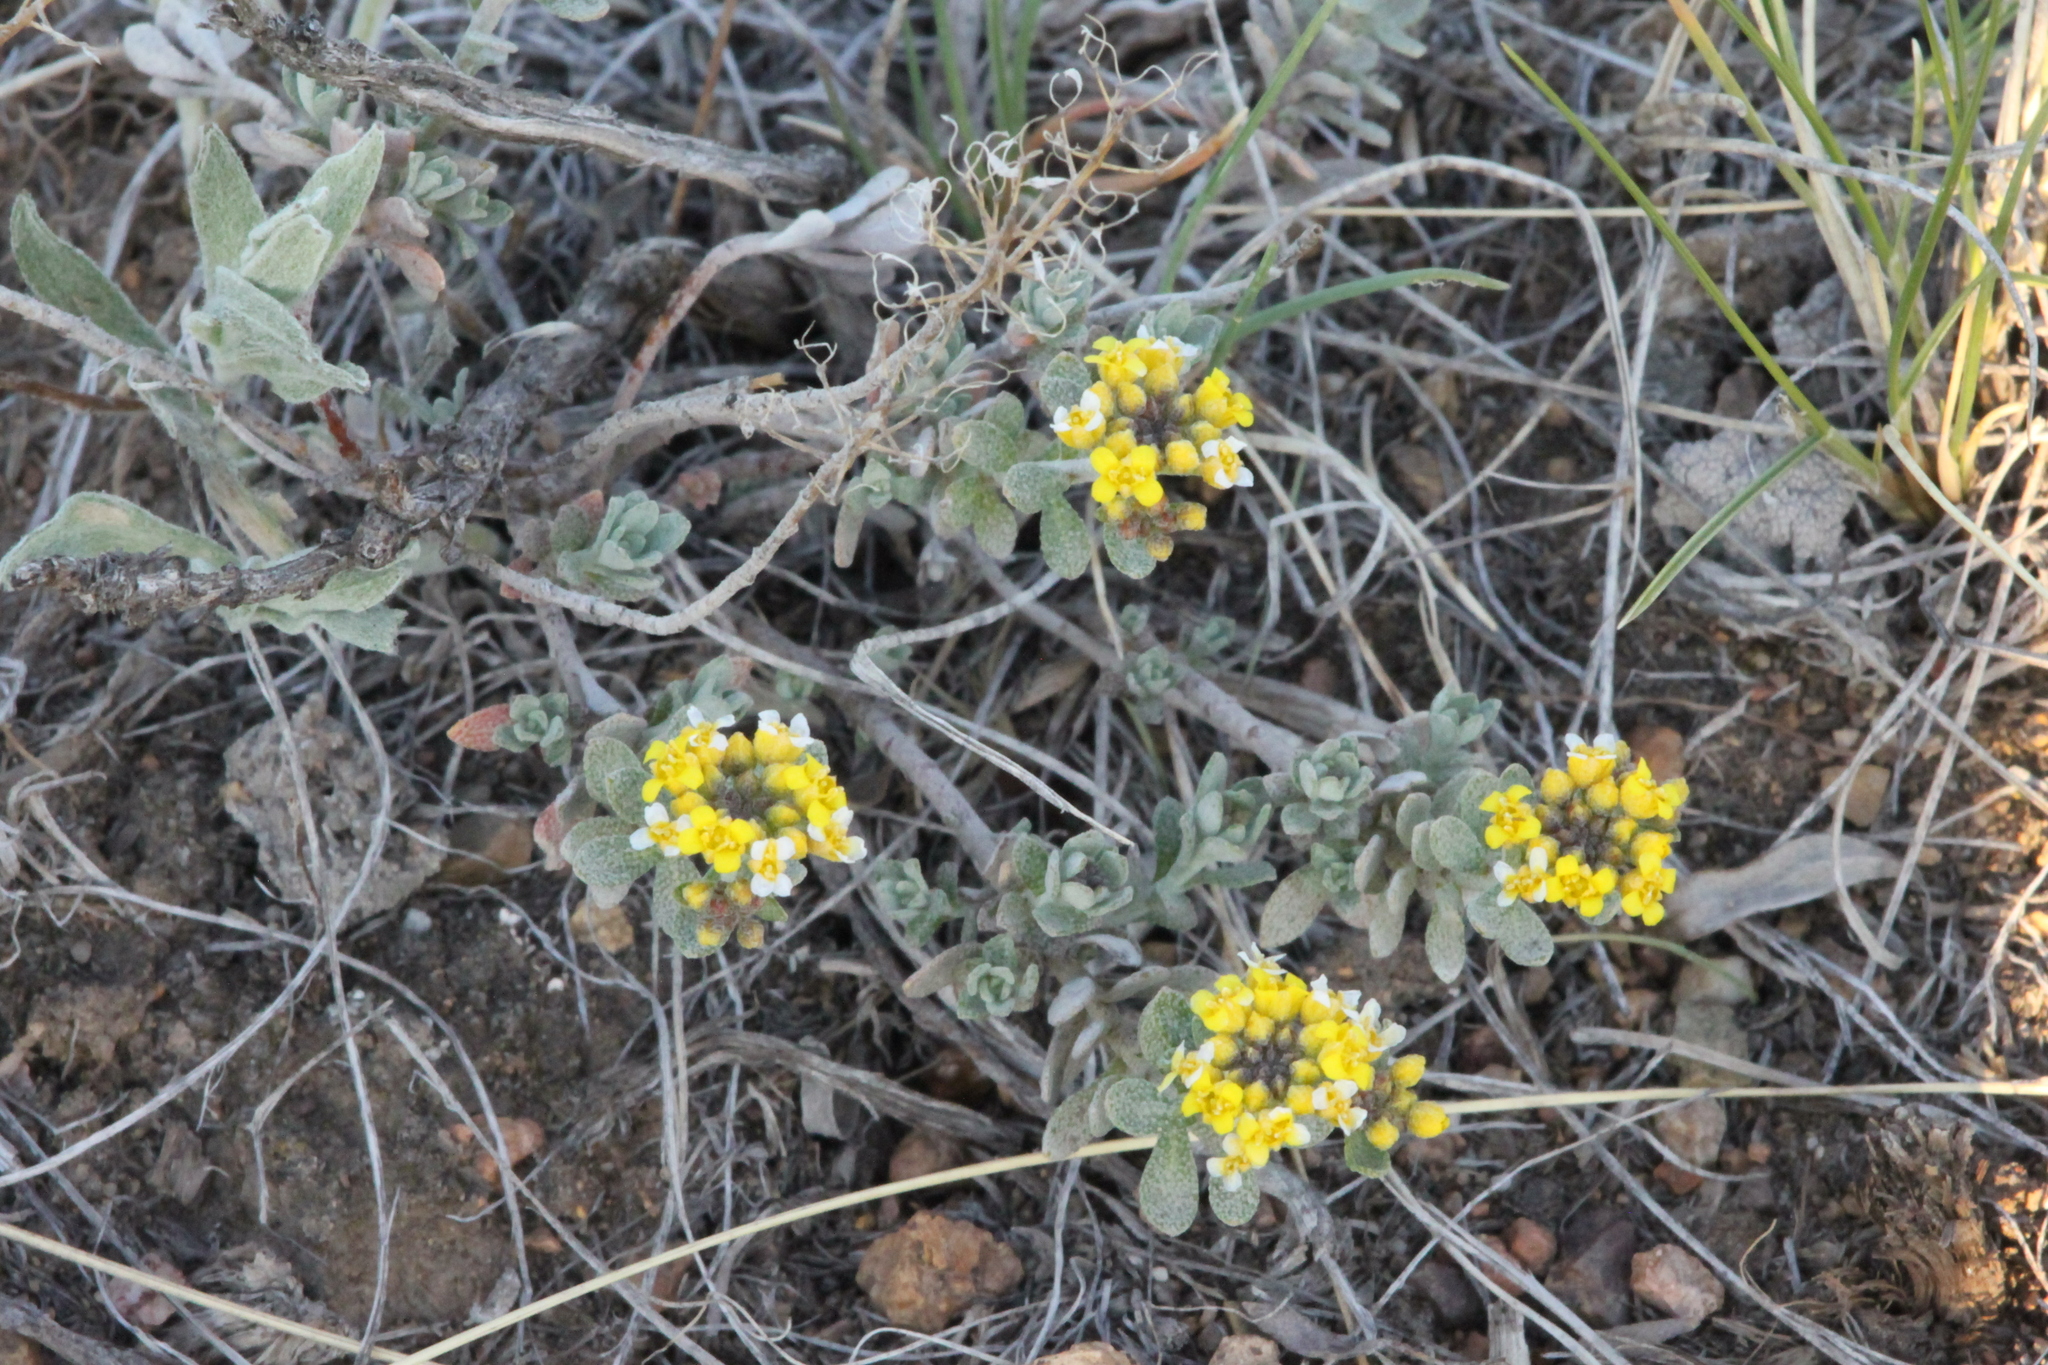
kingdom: Plantae
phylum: Tracheophyta
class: Magnoliopsida
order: Brassicales
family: Brassicaceae
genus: Odontarrhena
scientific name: Odontarrhena tortuosa
